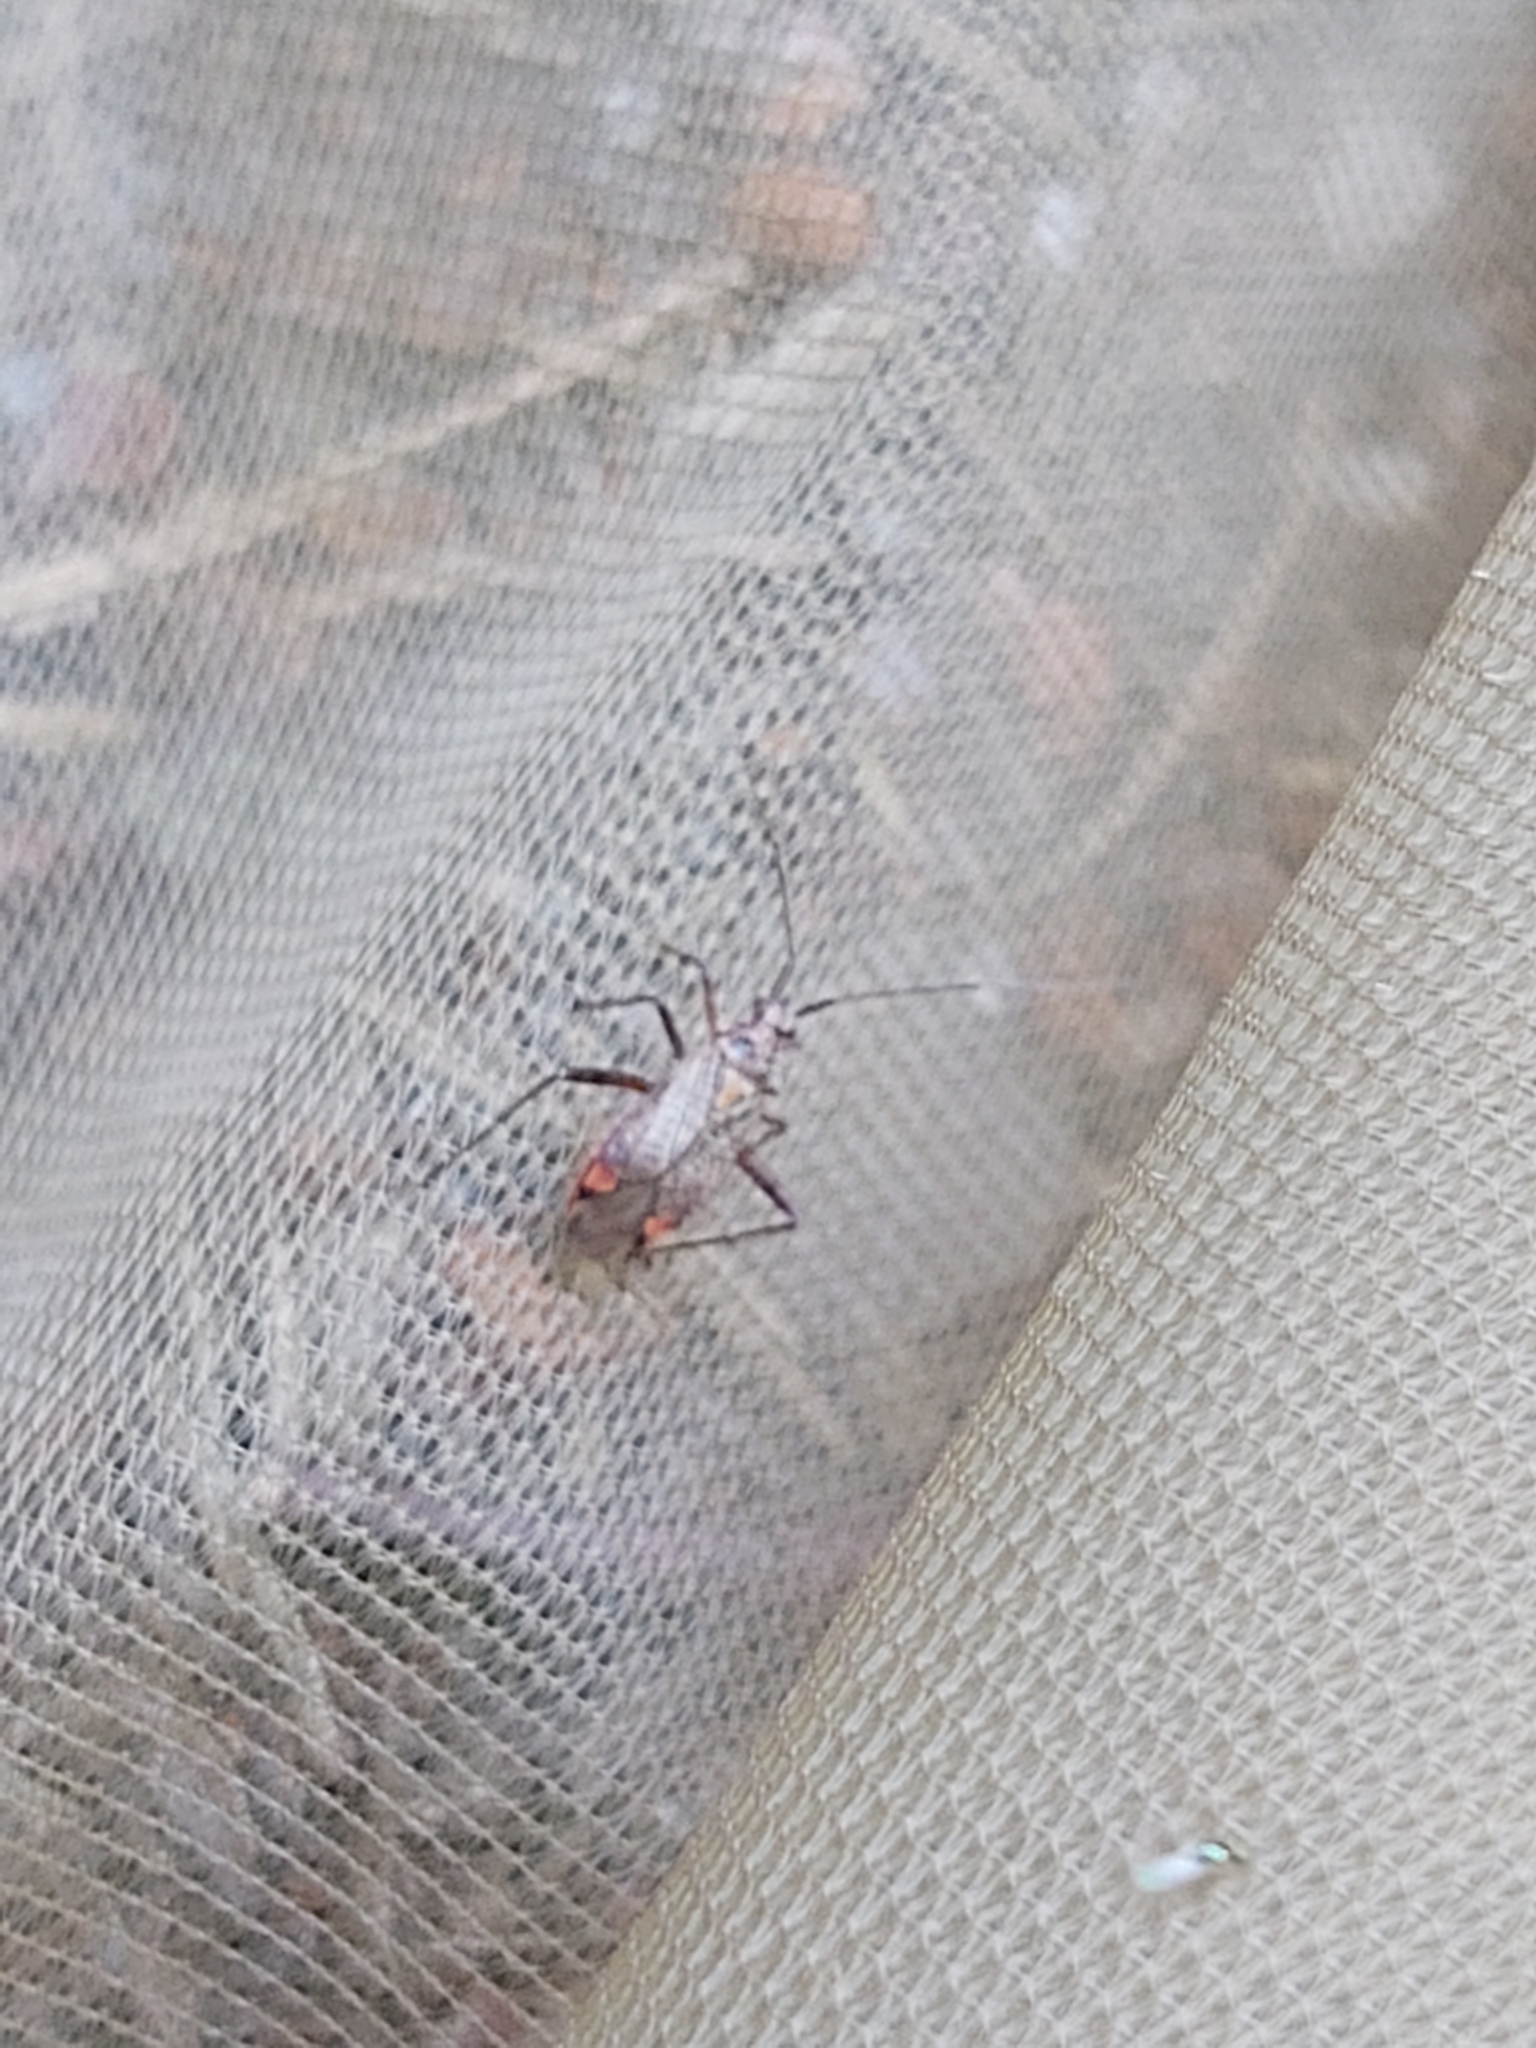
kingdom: Animalia
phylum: Arthropoda
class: Insecta
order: Hemiptera
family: Miridae
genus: Closterotomus
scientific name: Closterotomus fulvomaculatus
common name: Spotted plant bug
